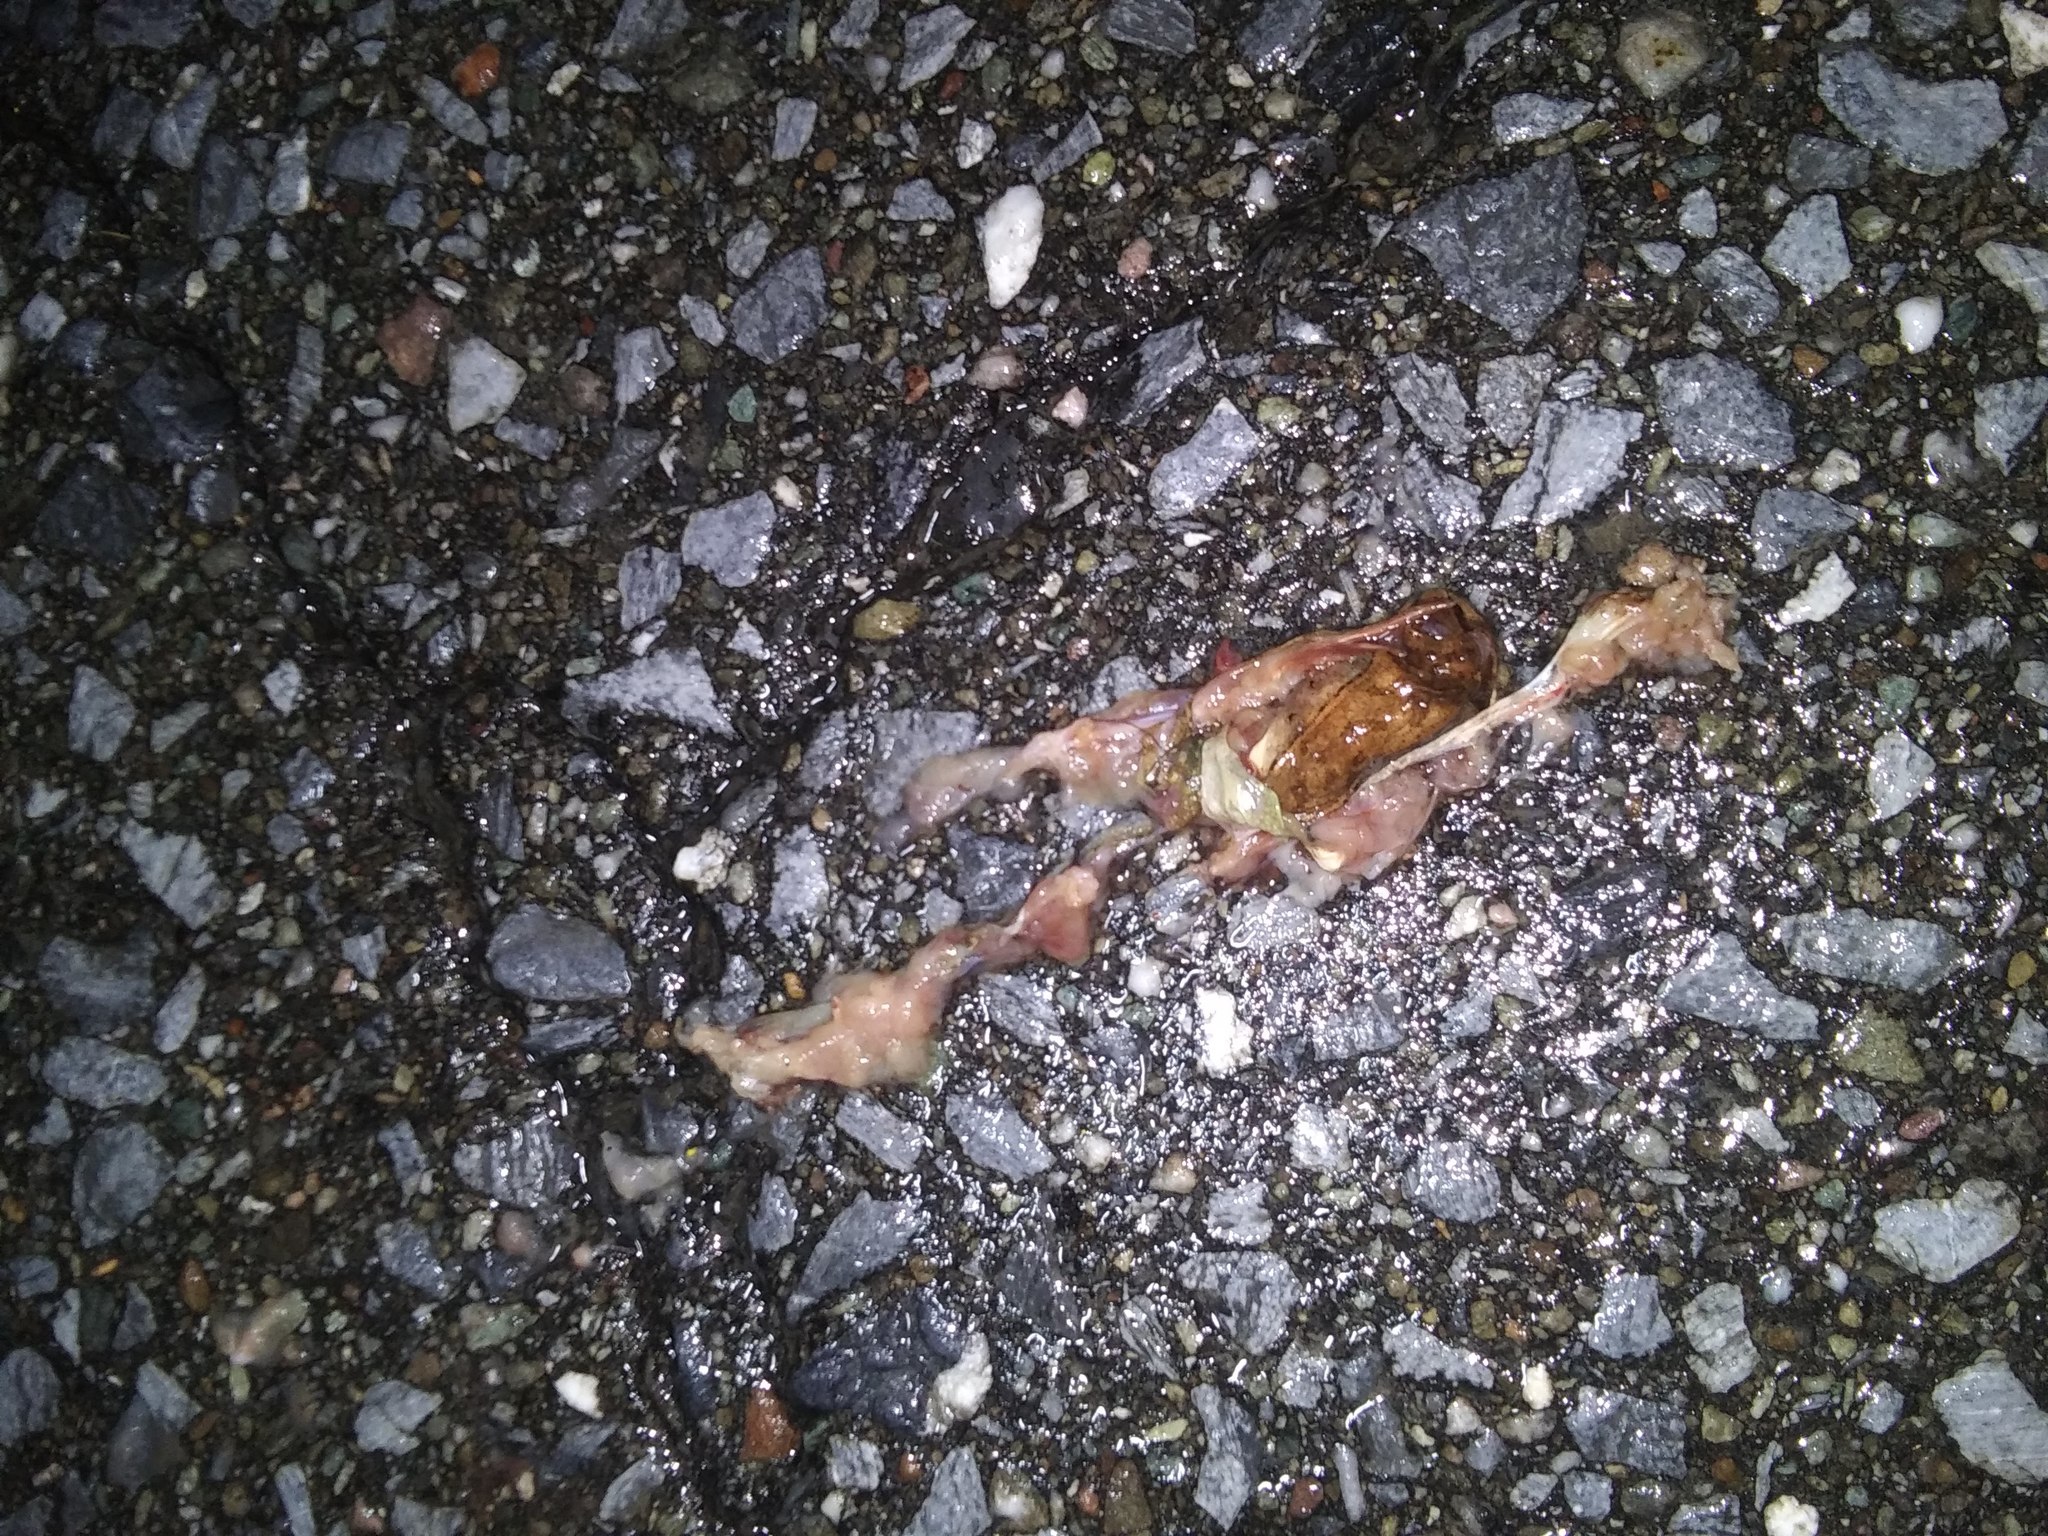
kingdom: Animalia
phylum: Chordata
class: Amphibia
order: Anura
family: Ranidae
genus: Lithobates
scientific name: Lithobates sylvaticus
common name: Wood frog
